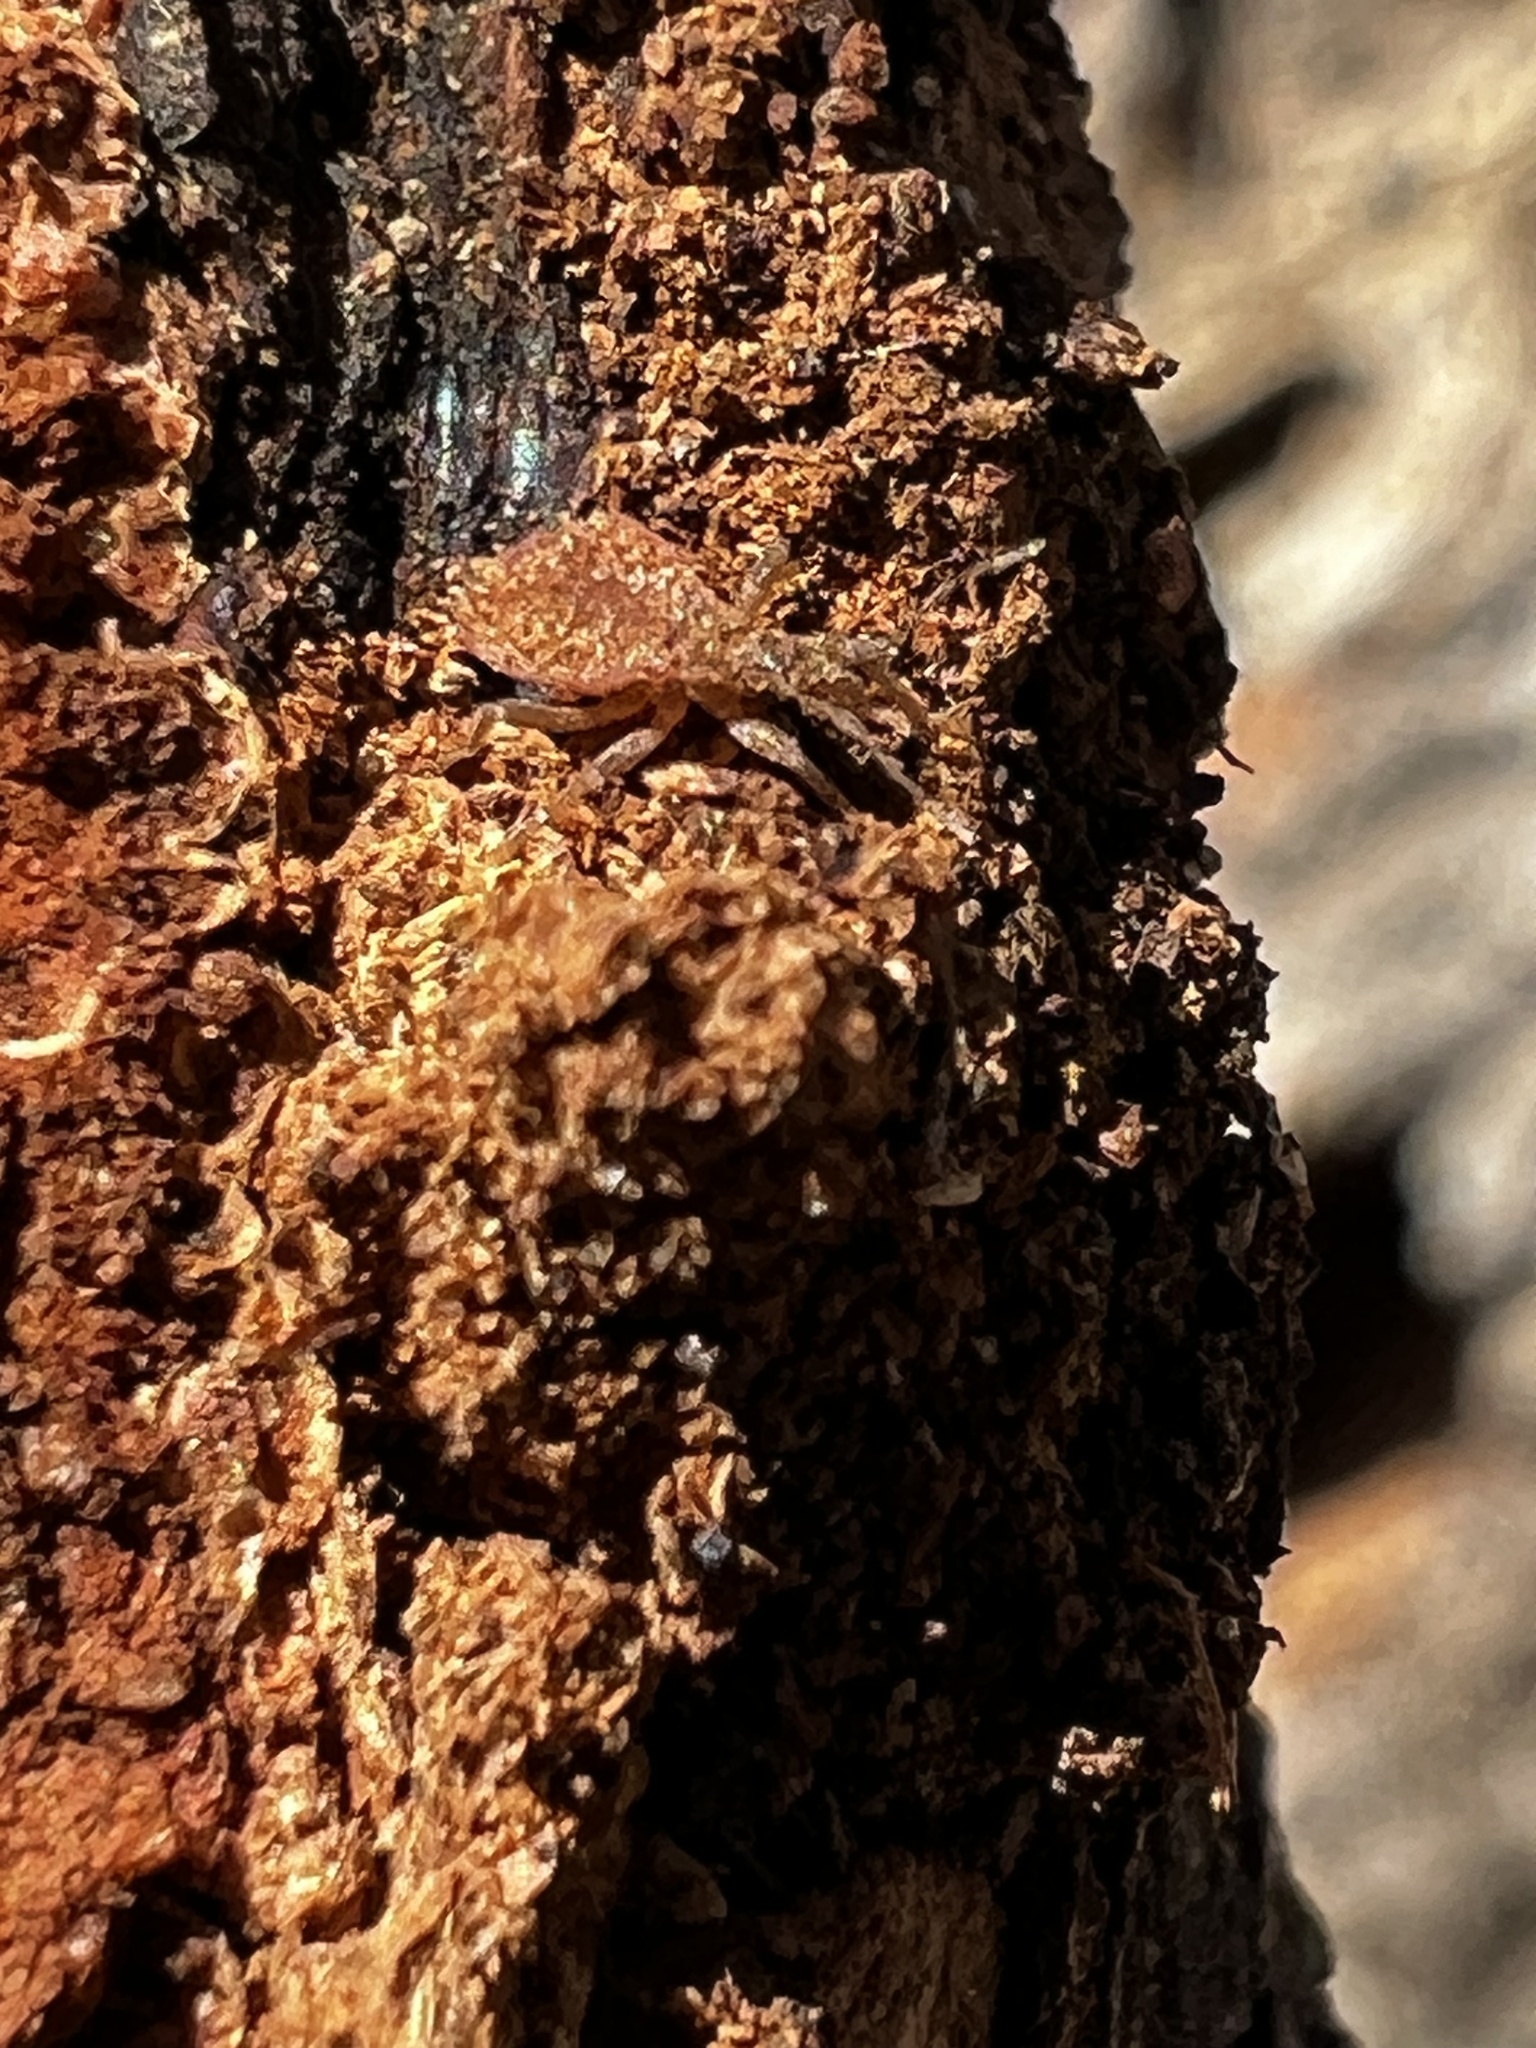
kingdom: Animalia
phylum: Arthropoda
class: Insecta
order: Hemiptera
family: Reduviidae
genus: Triatoma
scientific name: Triatoma sanguisuga
